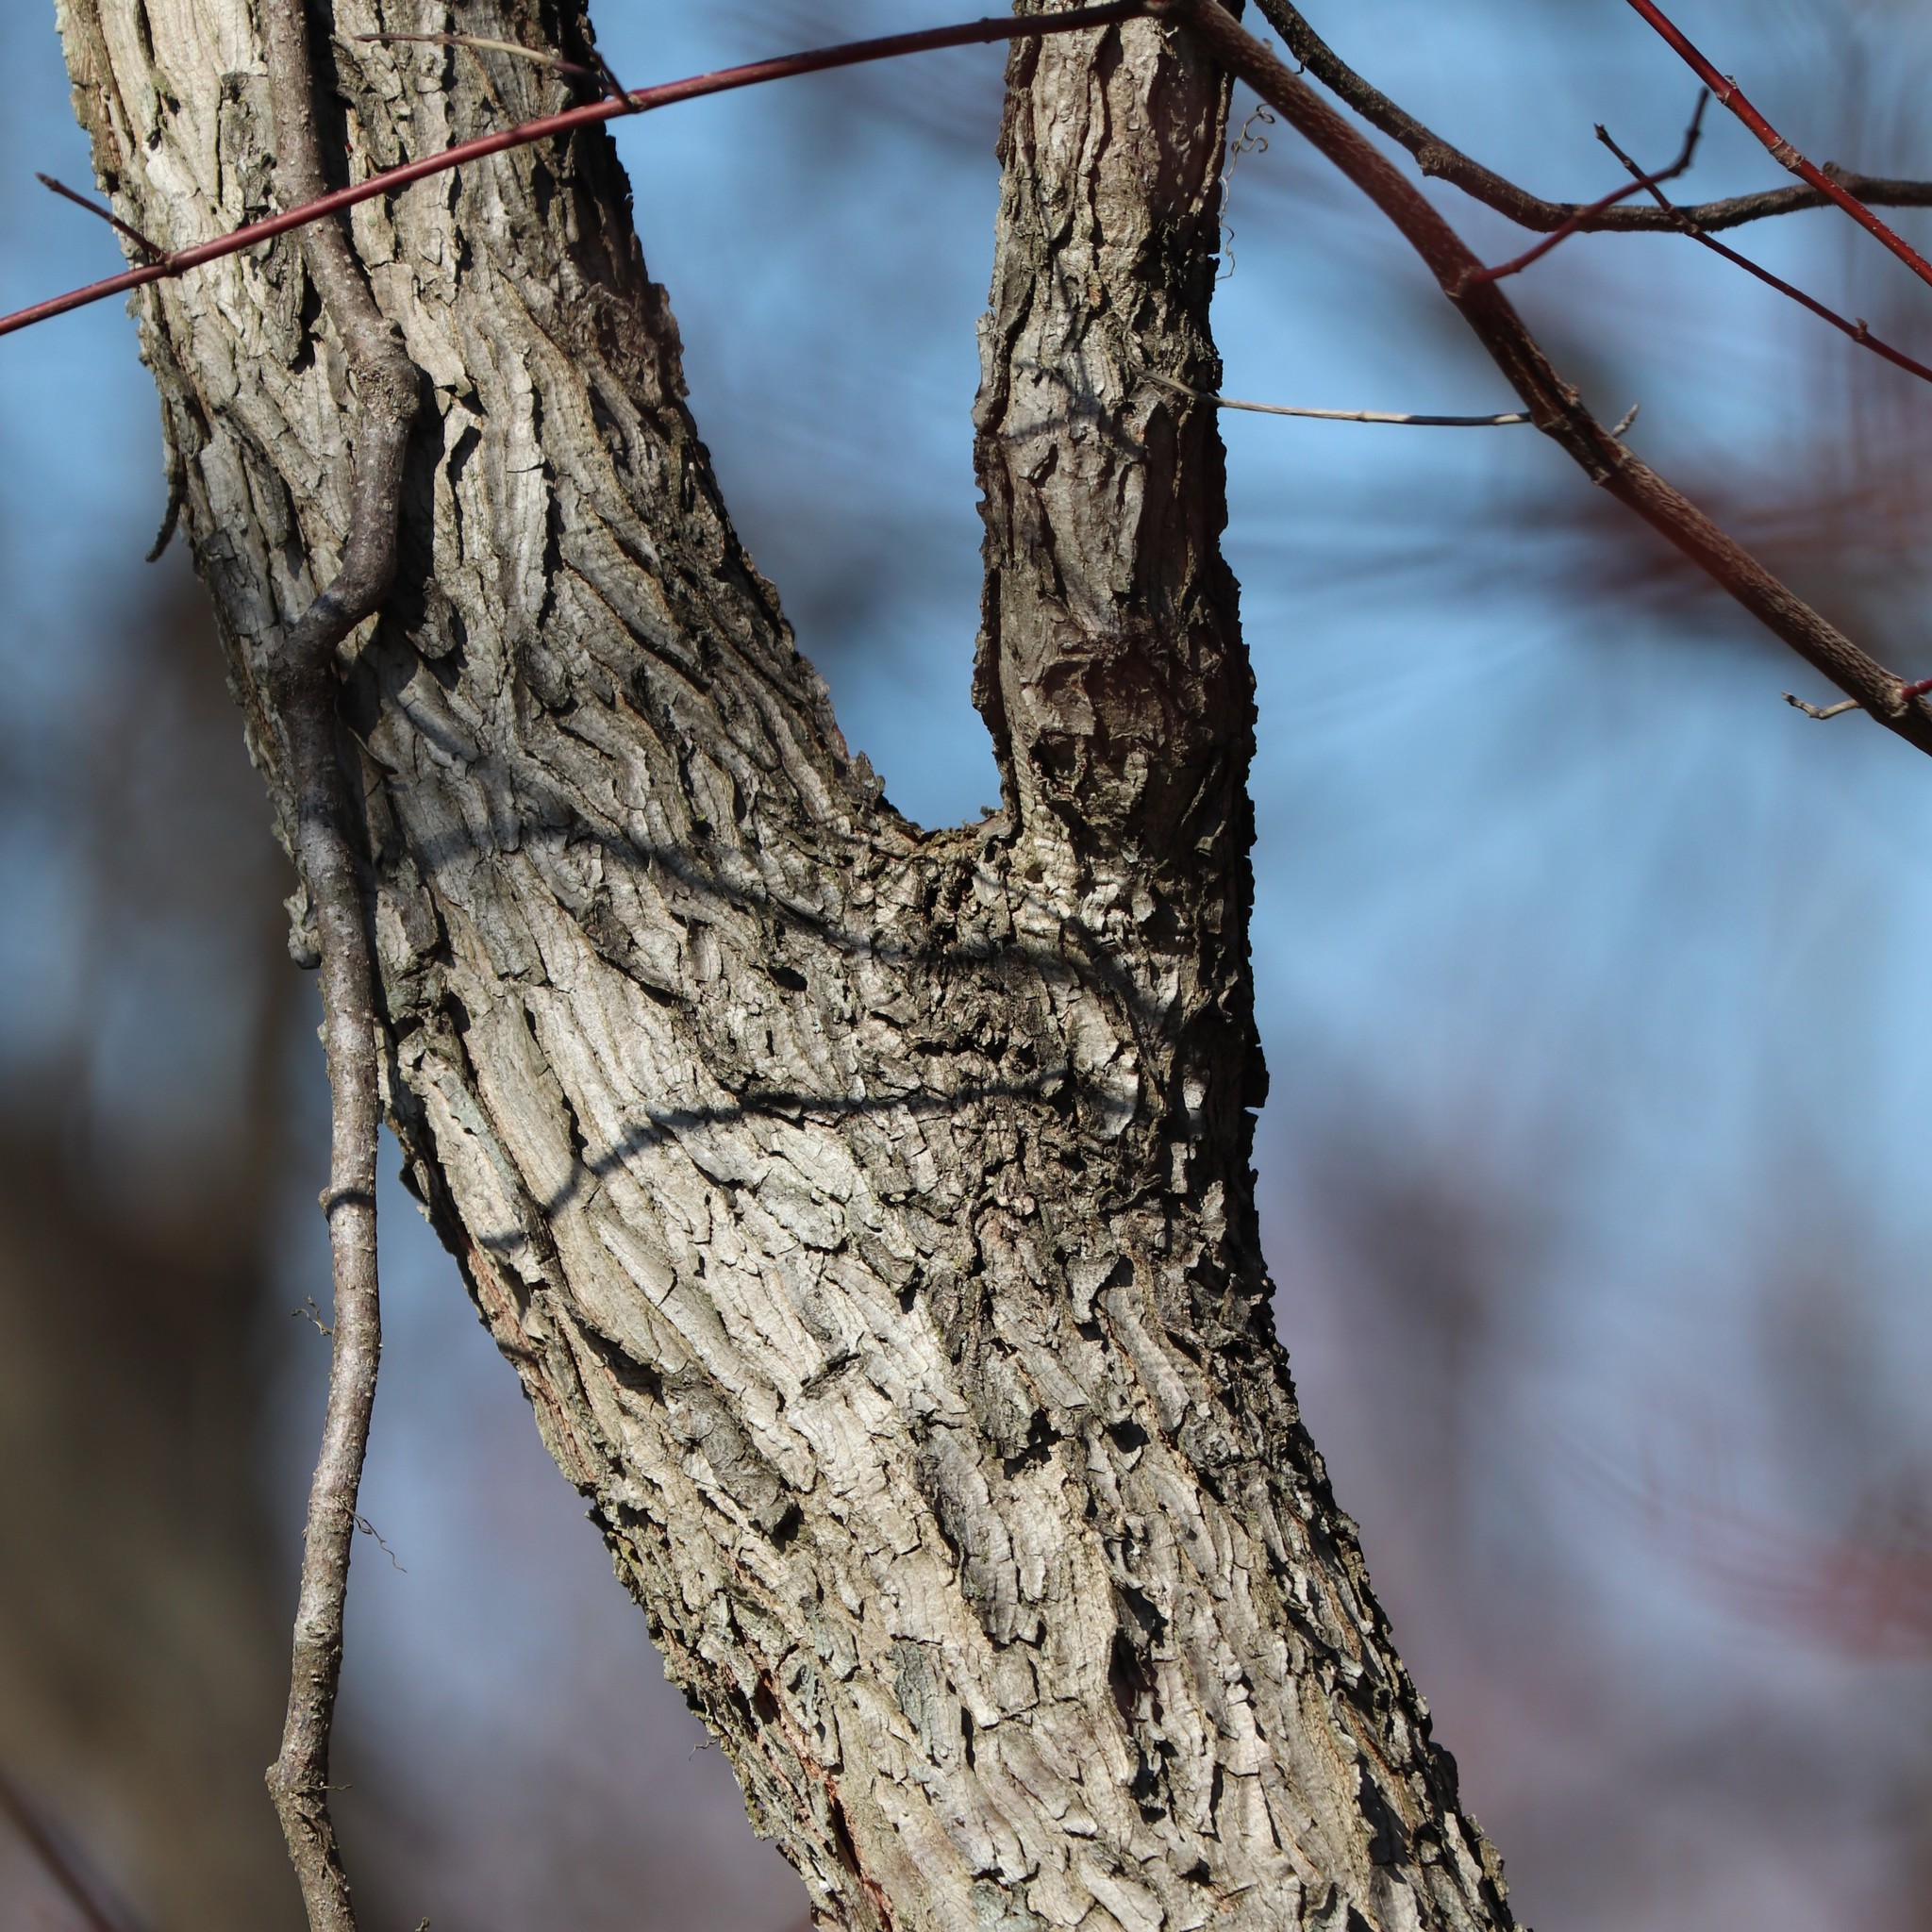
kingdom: Plantae
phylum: Tracheophyta
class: Magnoliopsida
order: Fabales
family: Fabaceae
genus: Gymnocladus
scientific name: Gymnocladus dioicus
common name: Kentucky coffee-tree
